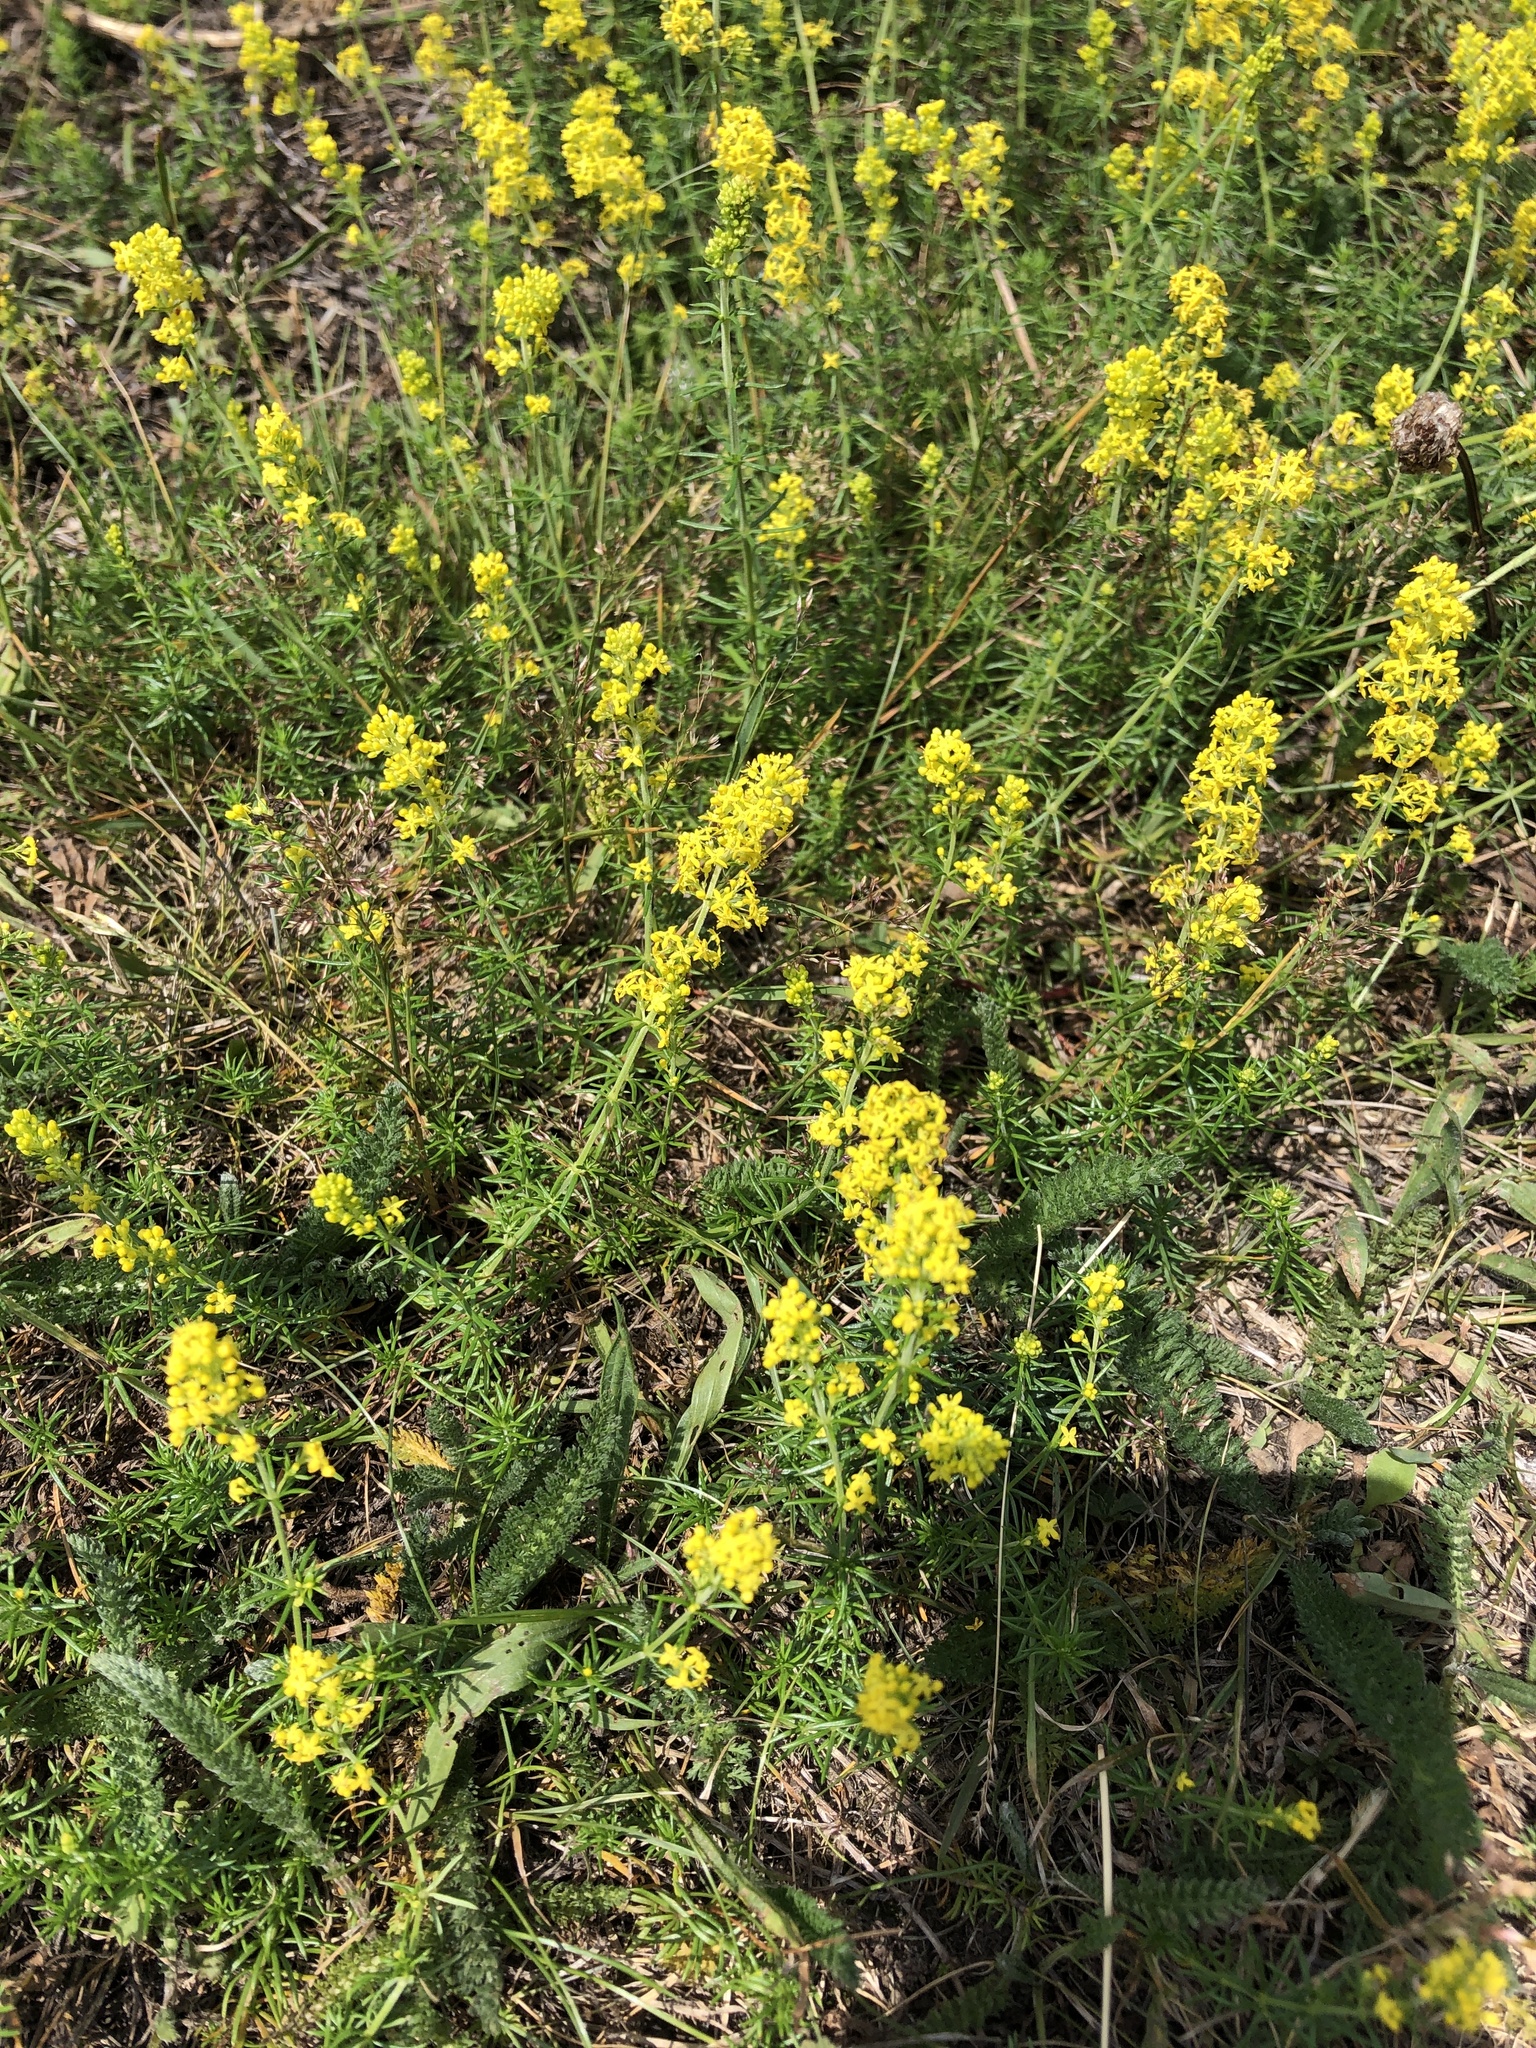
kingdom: Plantae
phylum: Tracheophyta
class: Magnoliopsida
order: Gentianales
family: Rubiaceae
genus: Galium
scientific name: Galium verum
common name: Lady's bedstraw
